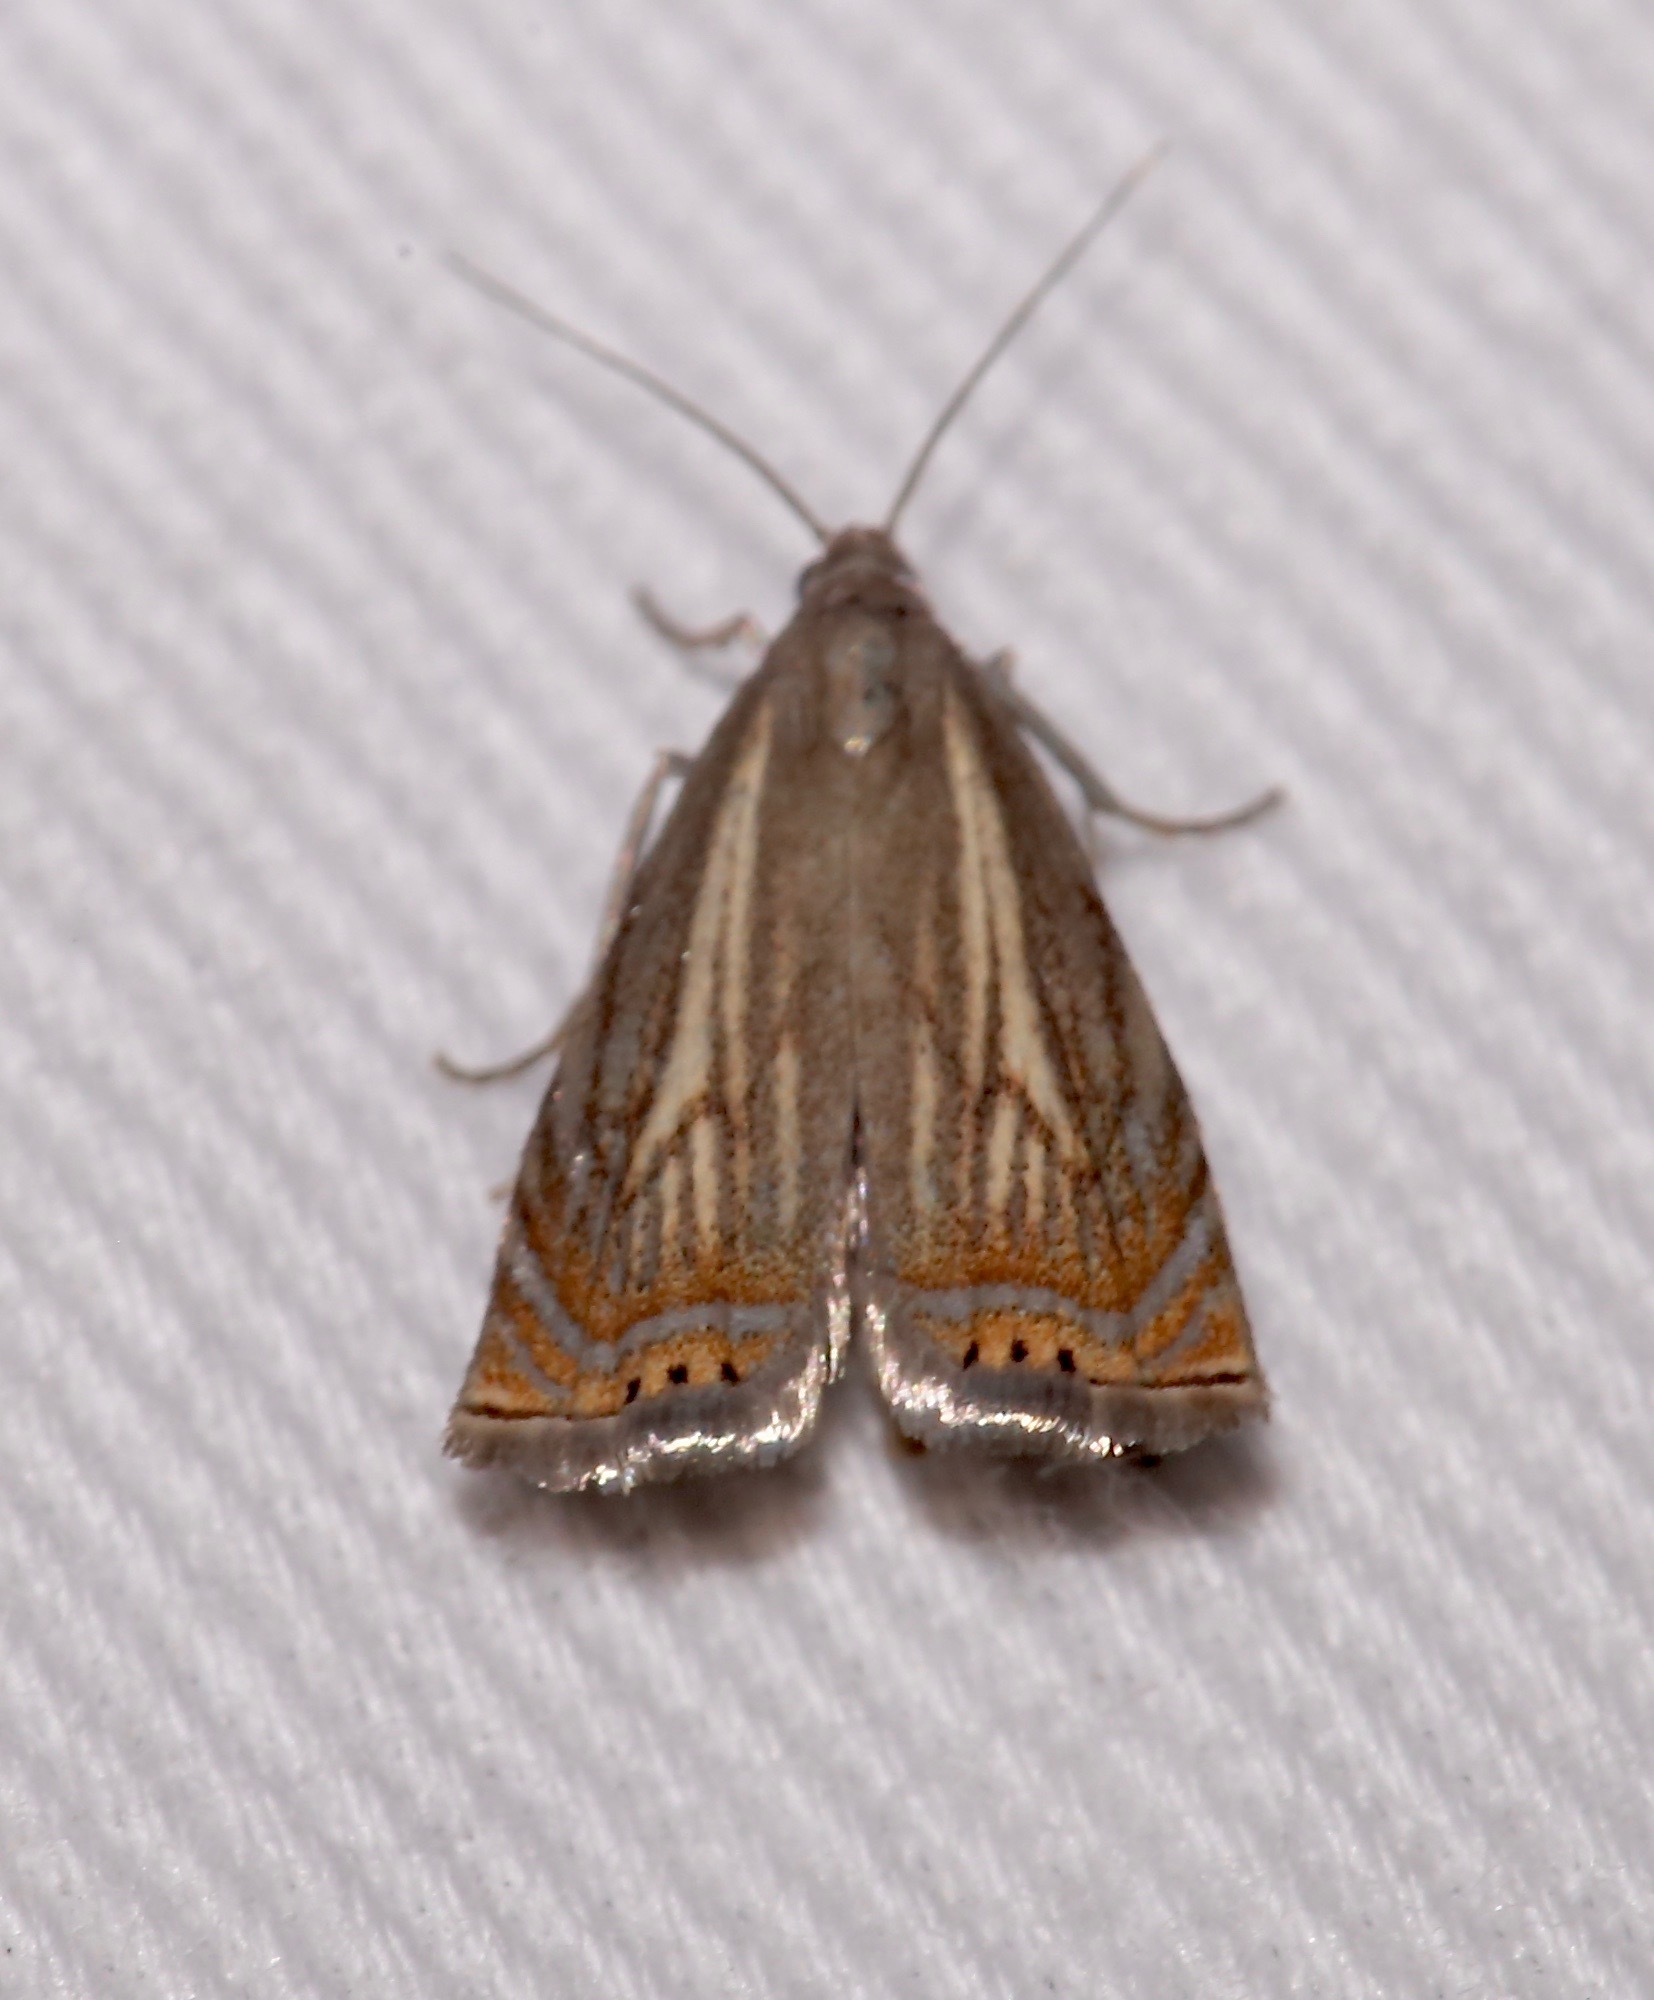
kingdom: Animalia
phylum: Arthropoda
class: Insecta
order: Lepidoptera
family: Crambidae
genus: Chrysoteuchia
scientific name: Chrysoteuchia topiarius
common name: Topiary grass-veneer
